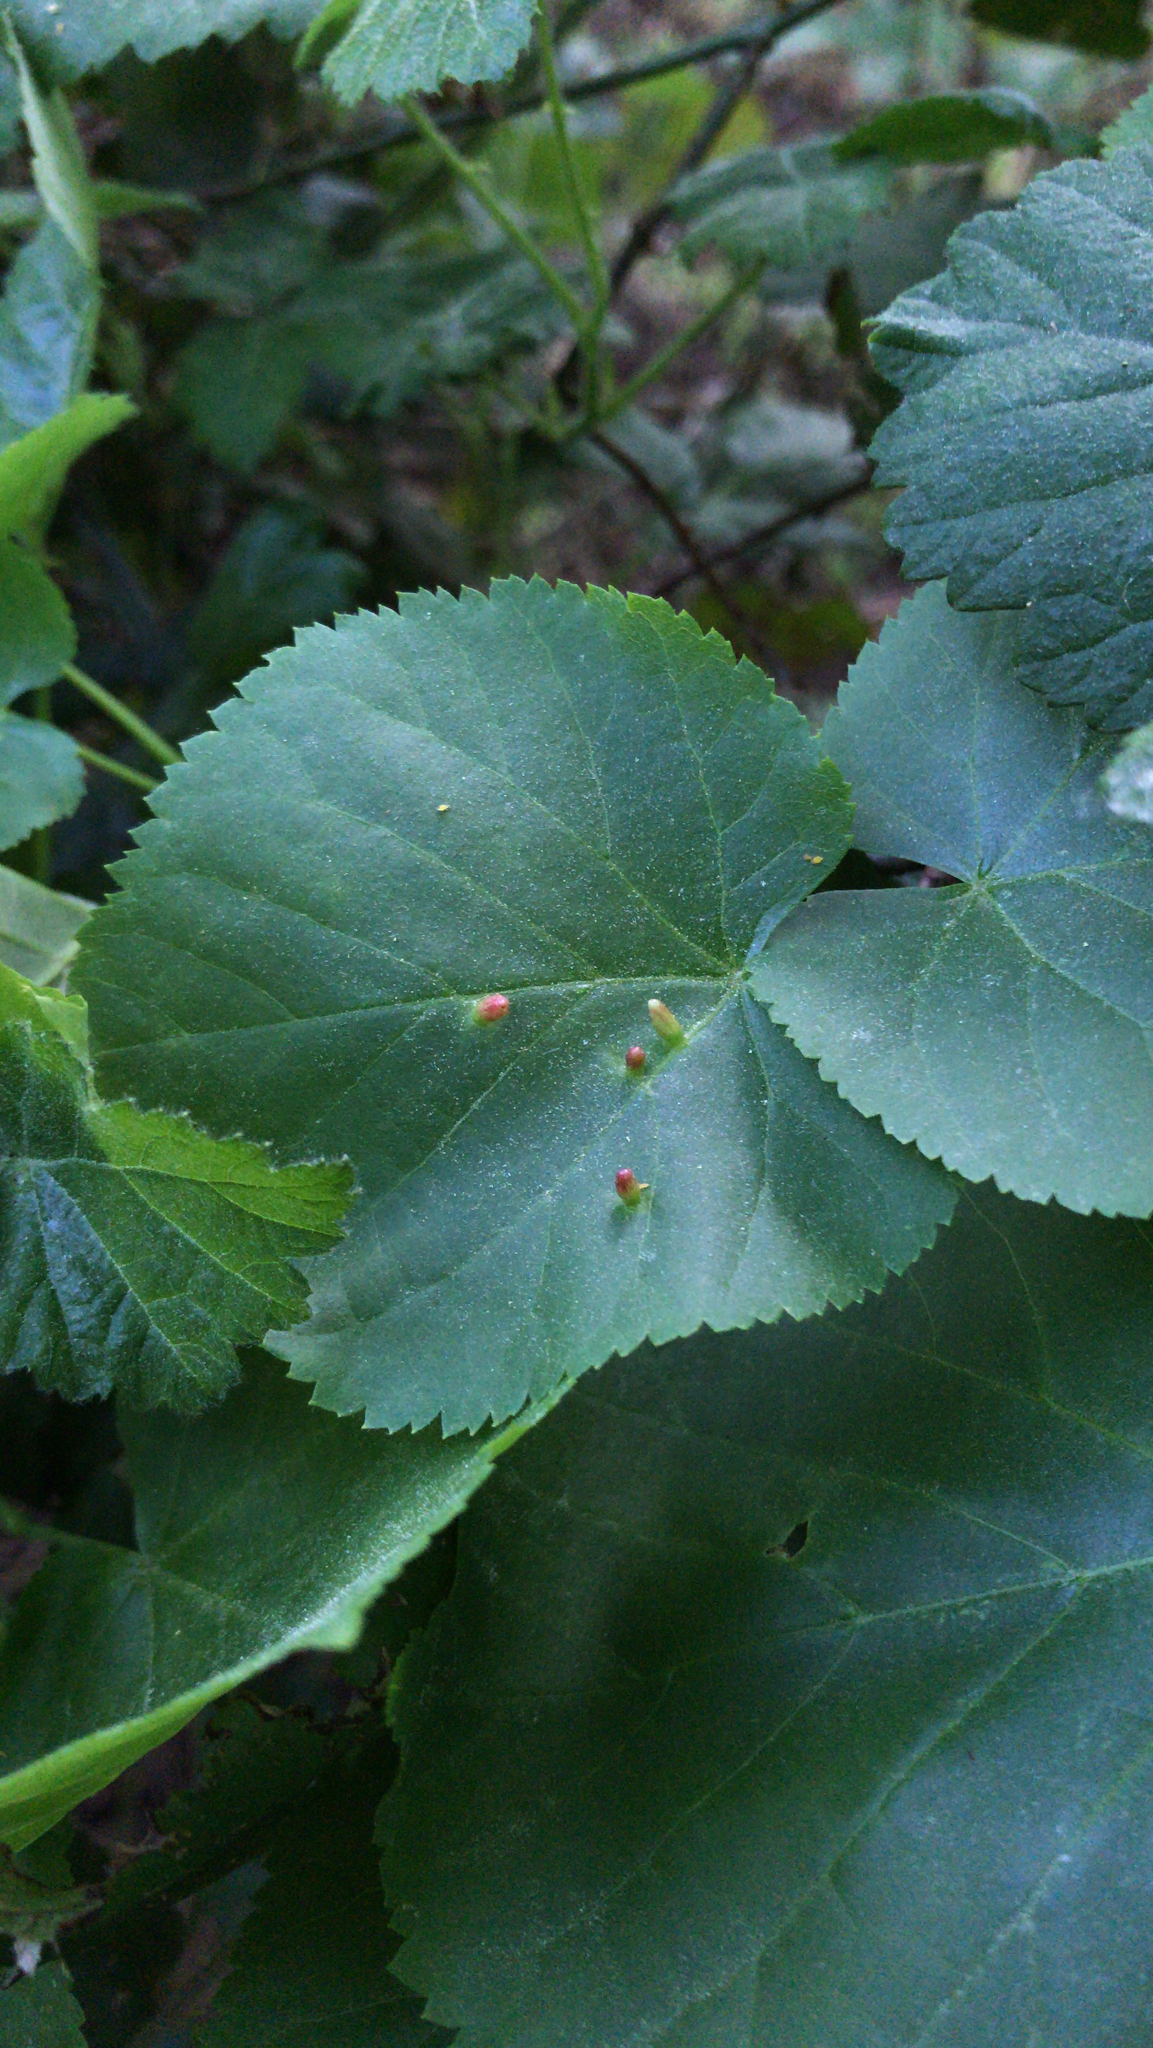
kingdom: Animalia
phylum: Arthropoda
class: Arachnida
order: Trombidiformes
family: Eriophyidae
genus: Eriophyes
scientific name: Eriophyes tiliae
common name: Red nail gall mite
